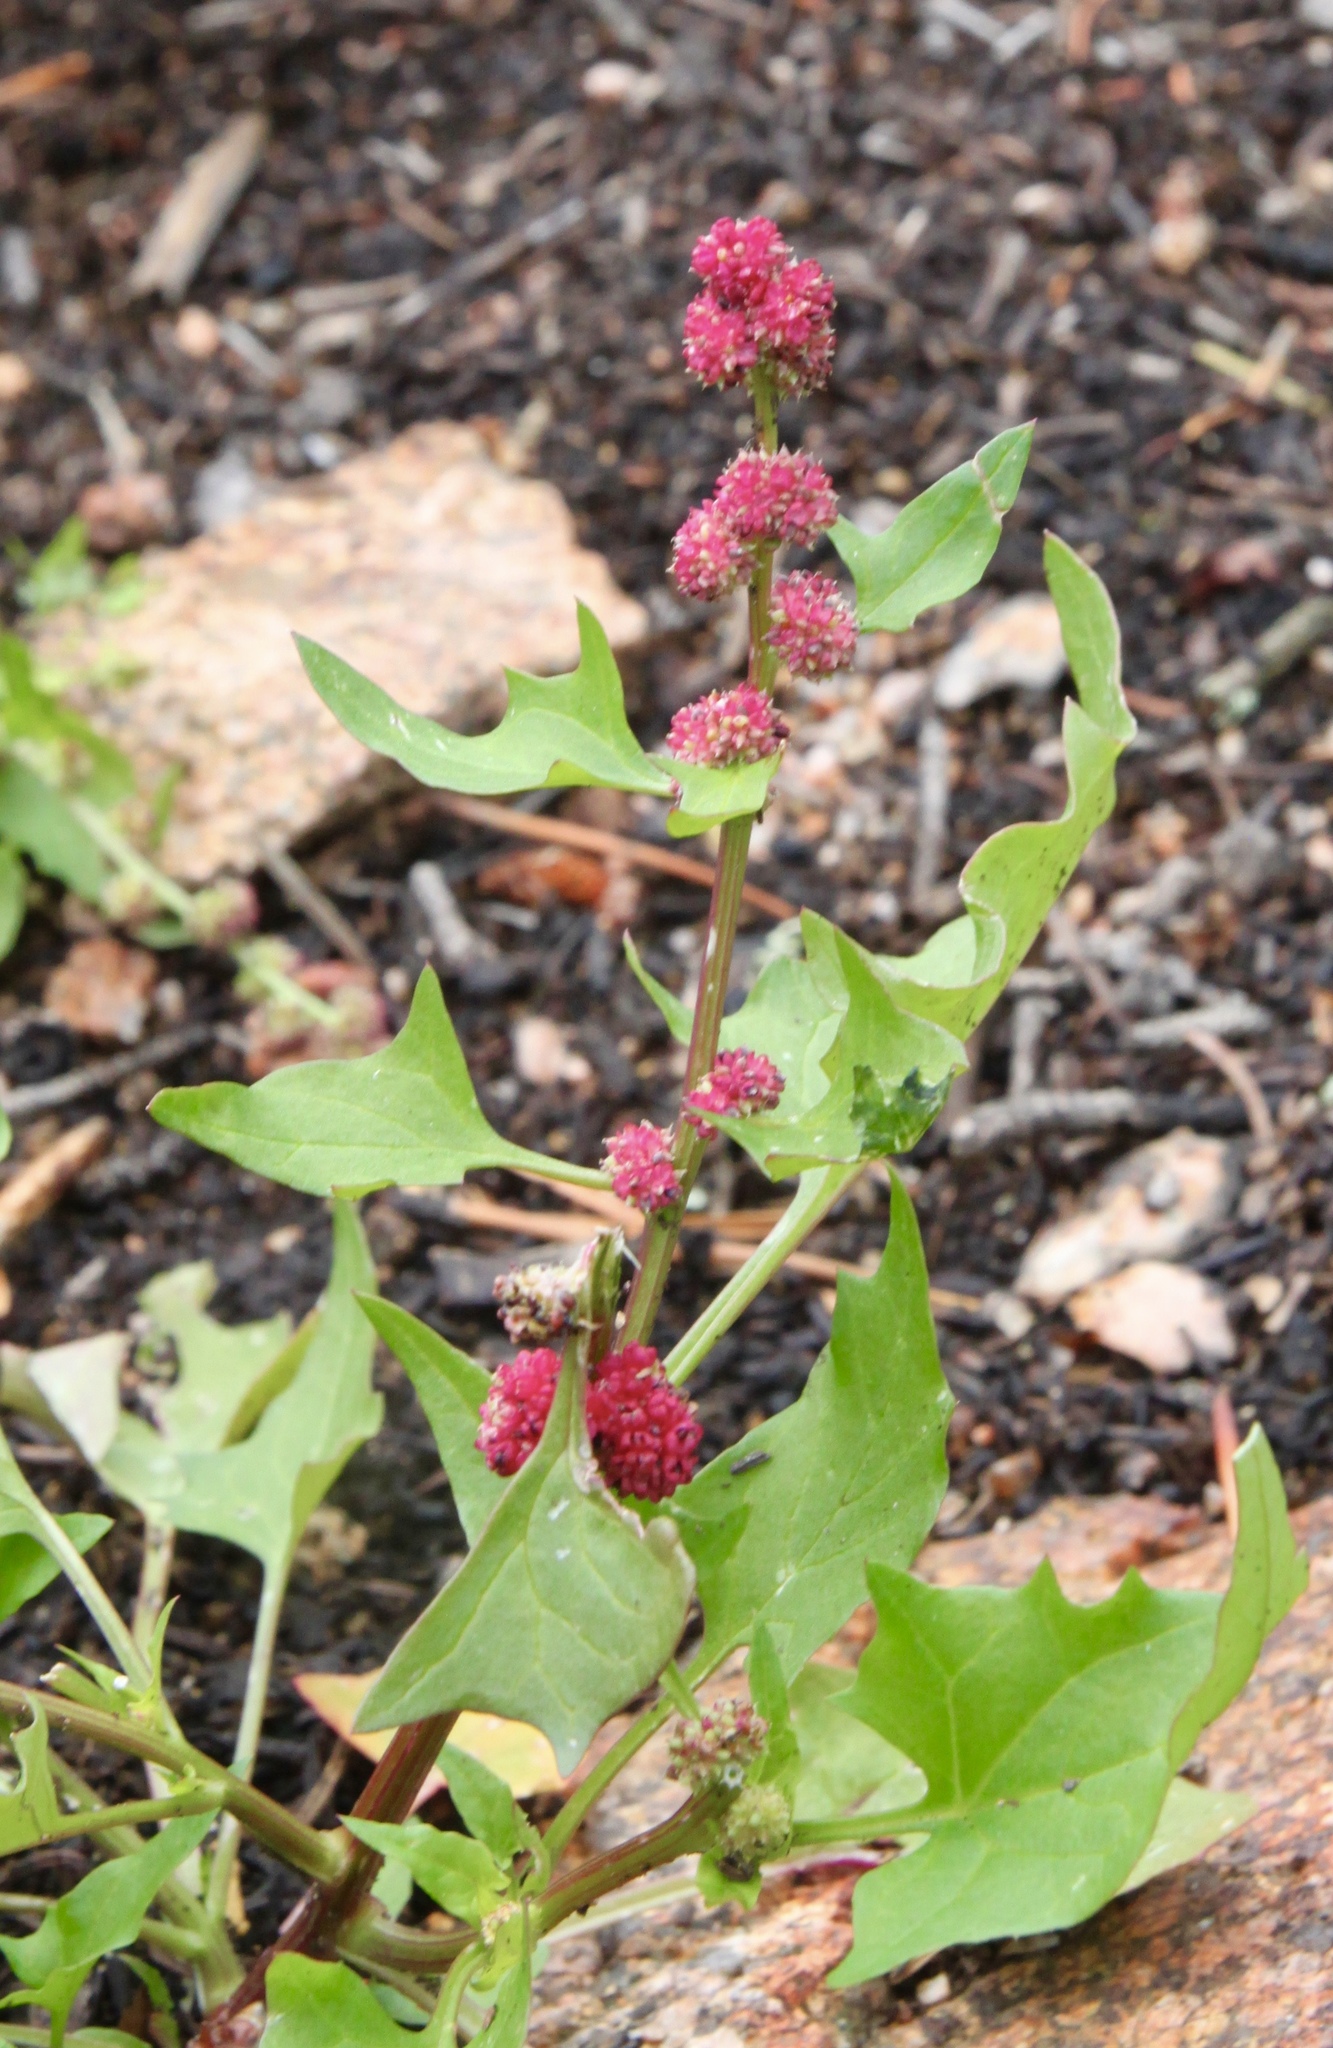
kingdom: Plantae
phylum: Tracheophyta
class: Magnoliopsida
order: Caryophyllales
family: Amaranthaceae
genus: Blitum
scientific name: Blitum capitatum
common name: Strawberry-blight
